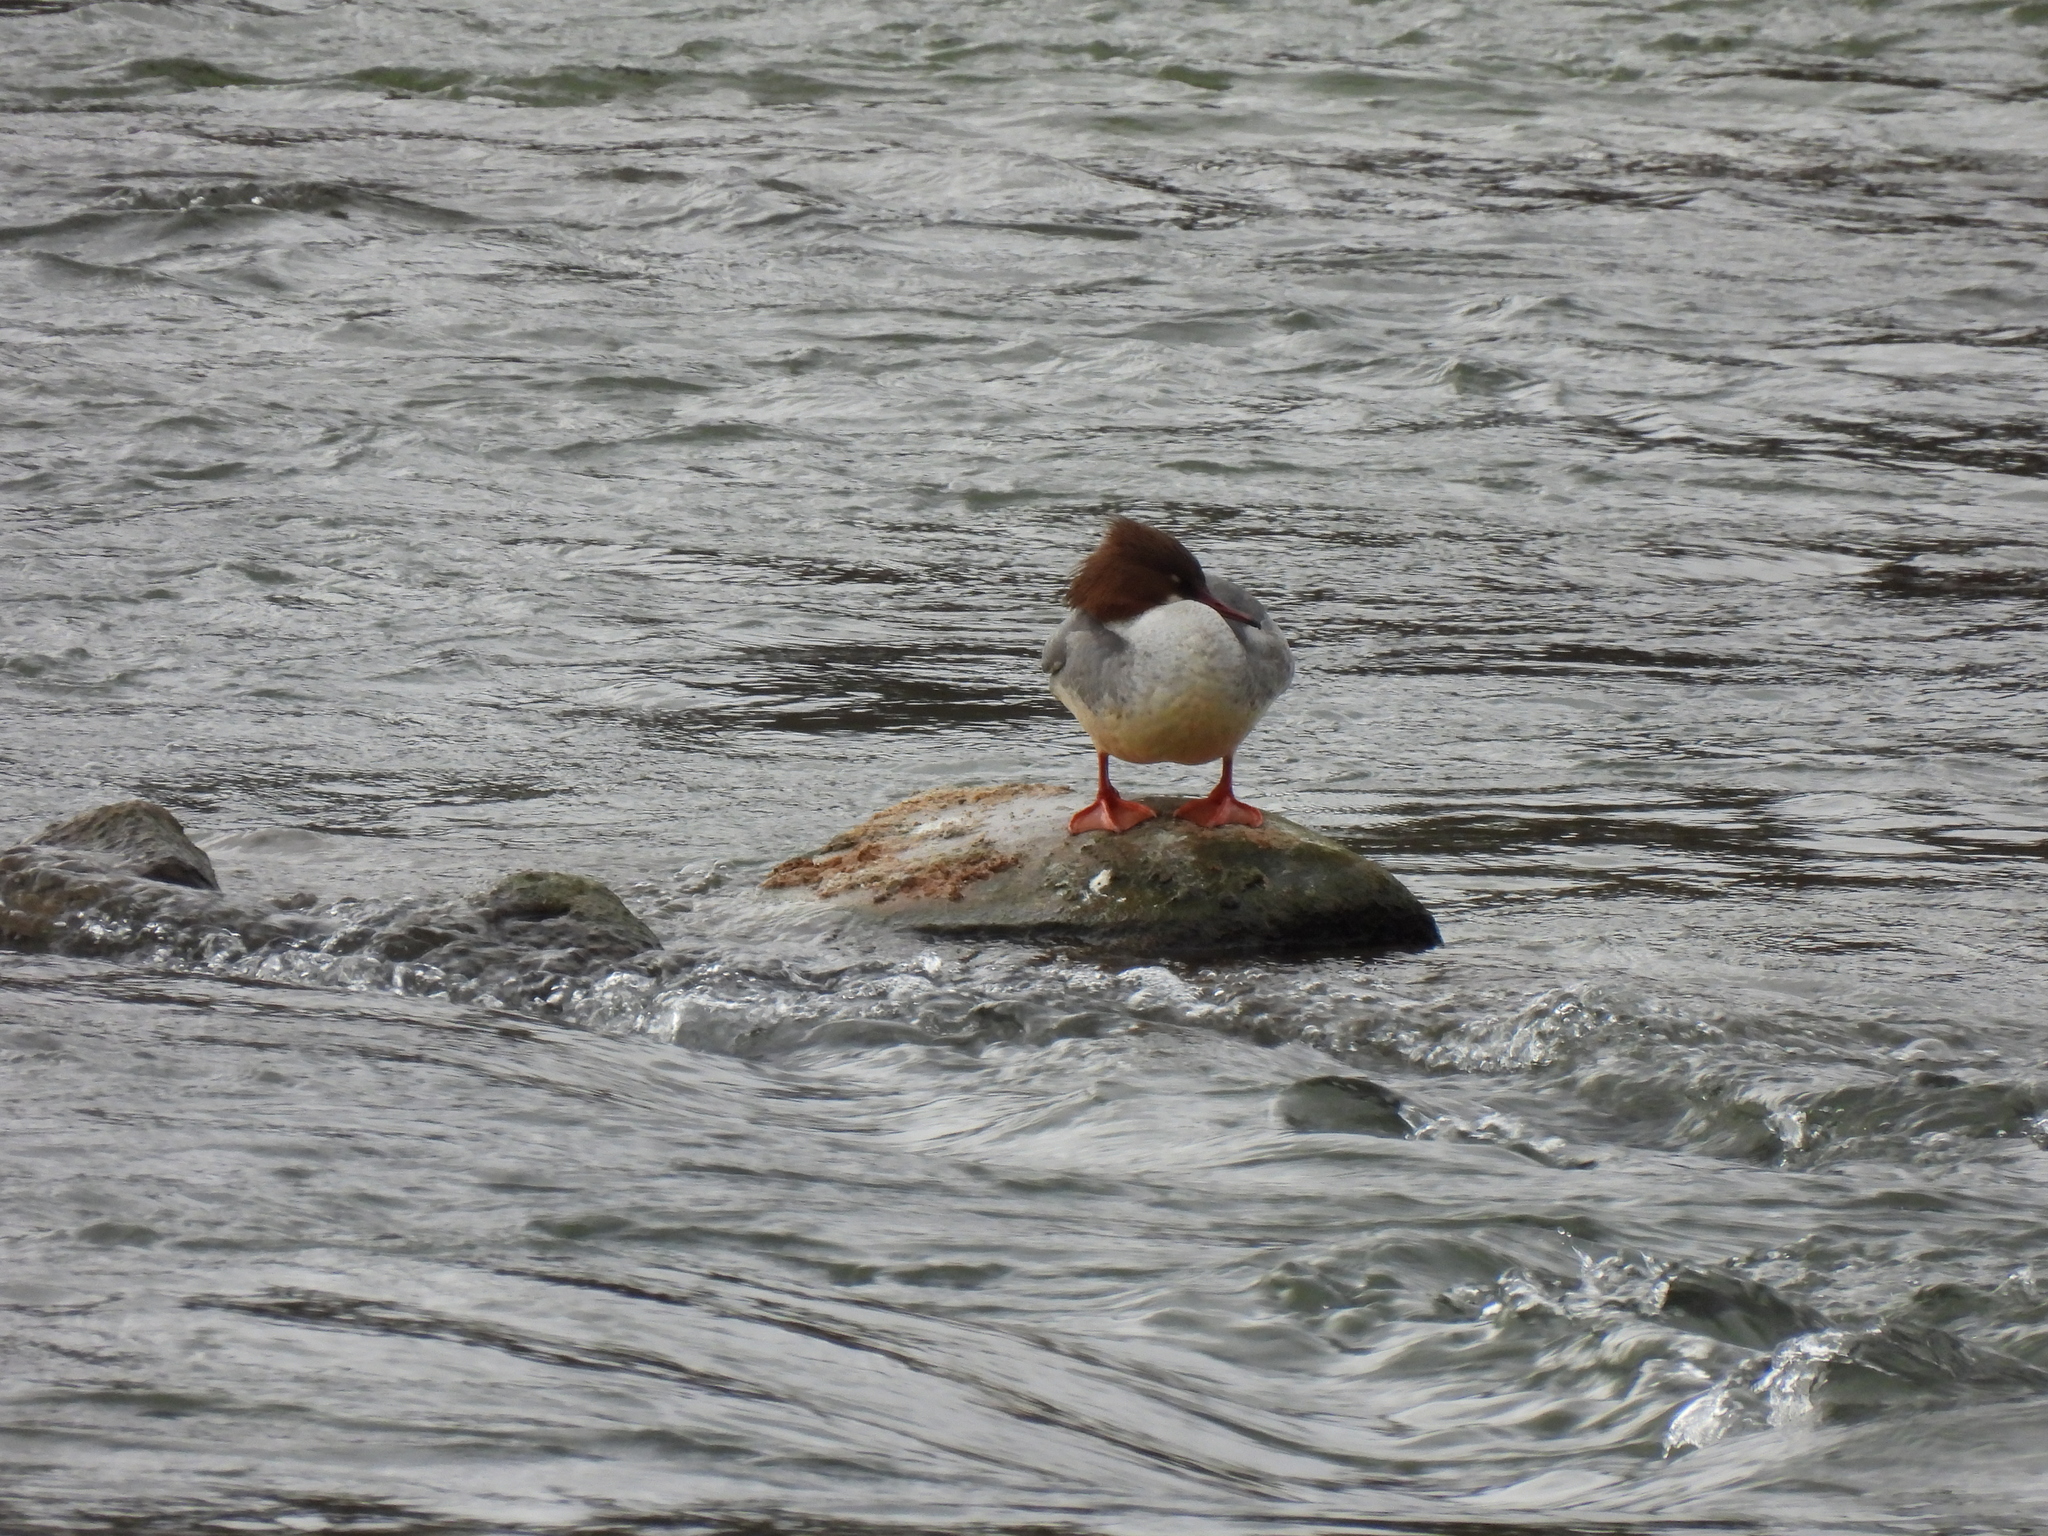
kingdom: Animalia
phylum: Chordata
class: Aves
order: Anseriformes
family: Anatidae
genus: Mergus
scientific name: Mergus merganser
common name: Common merganser
